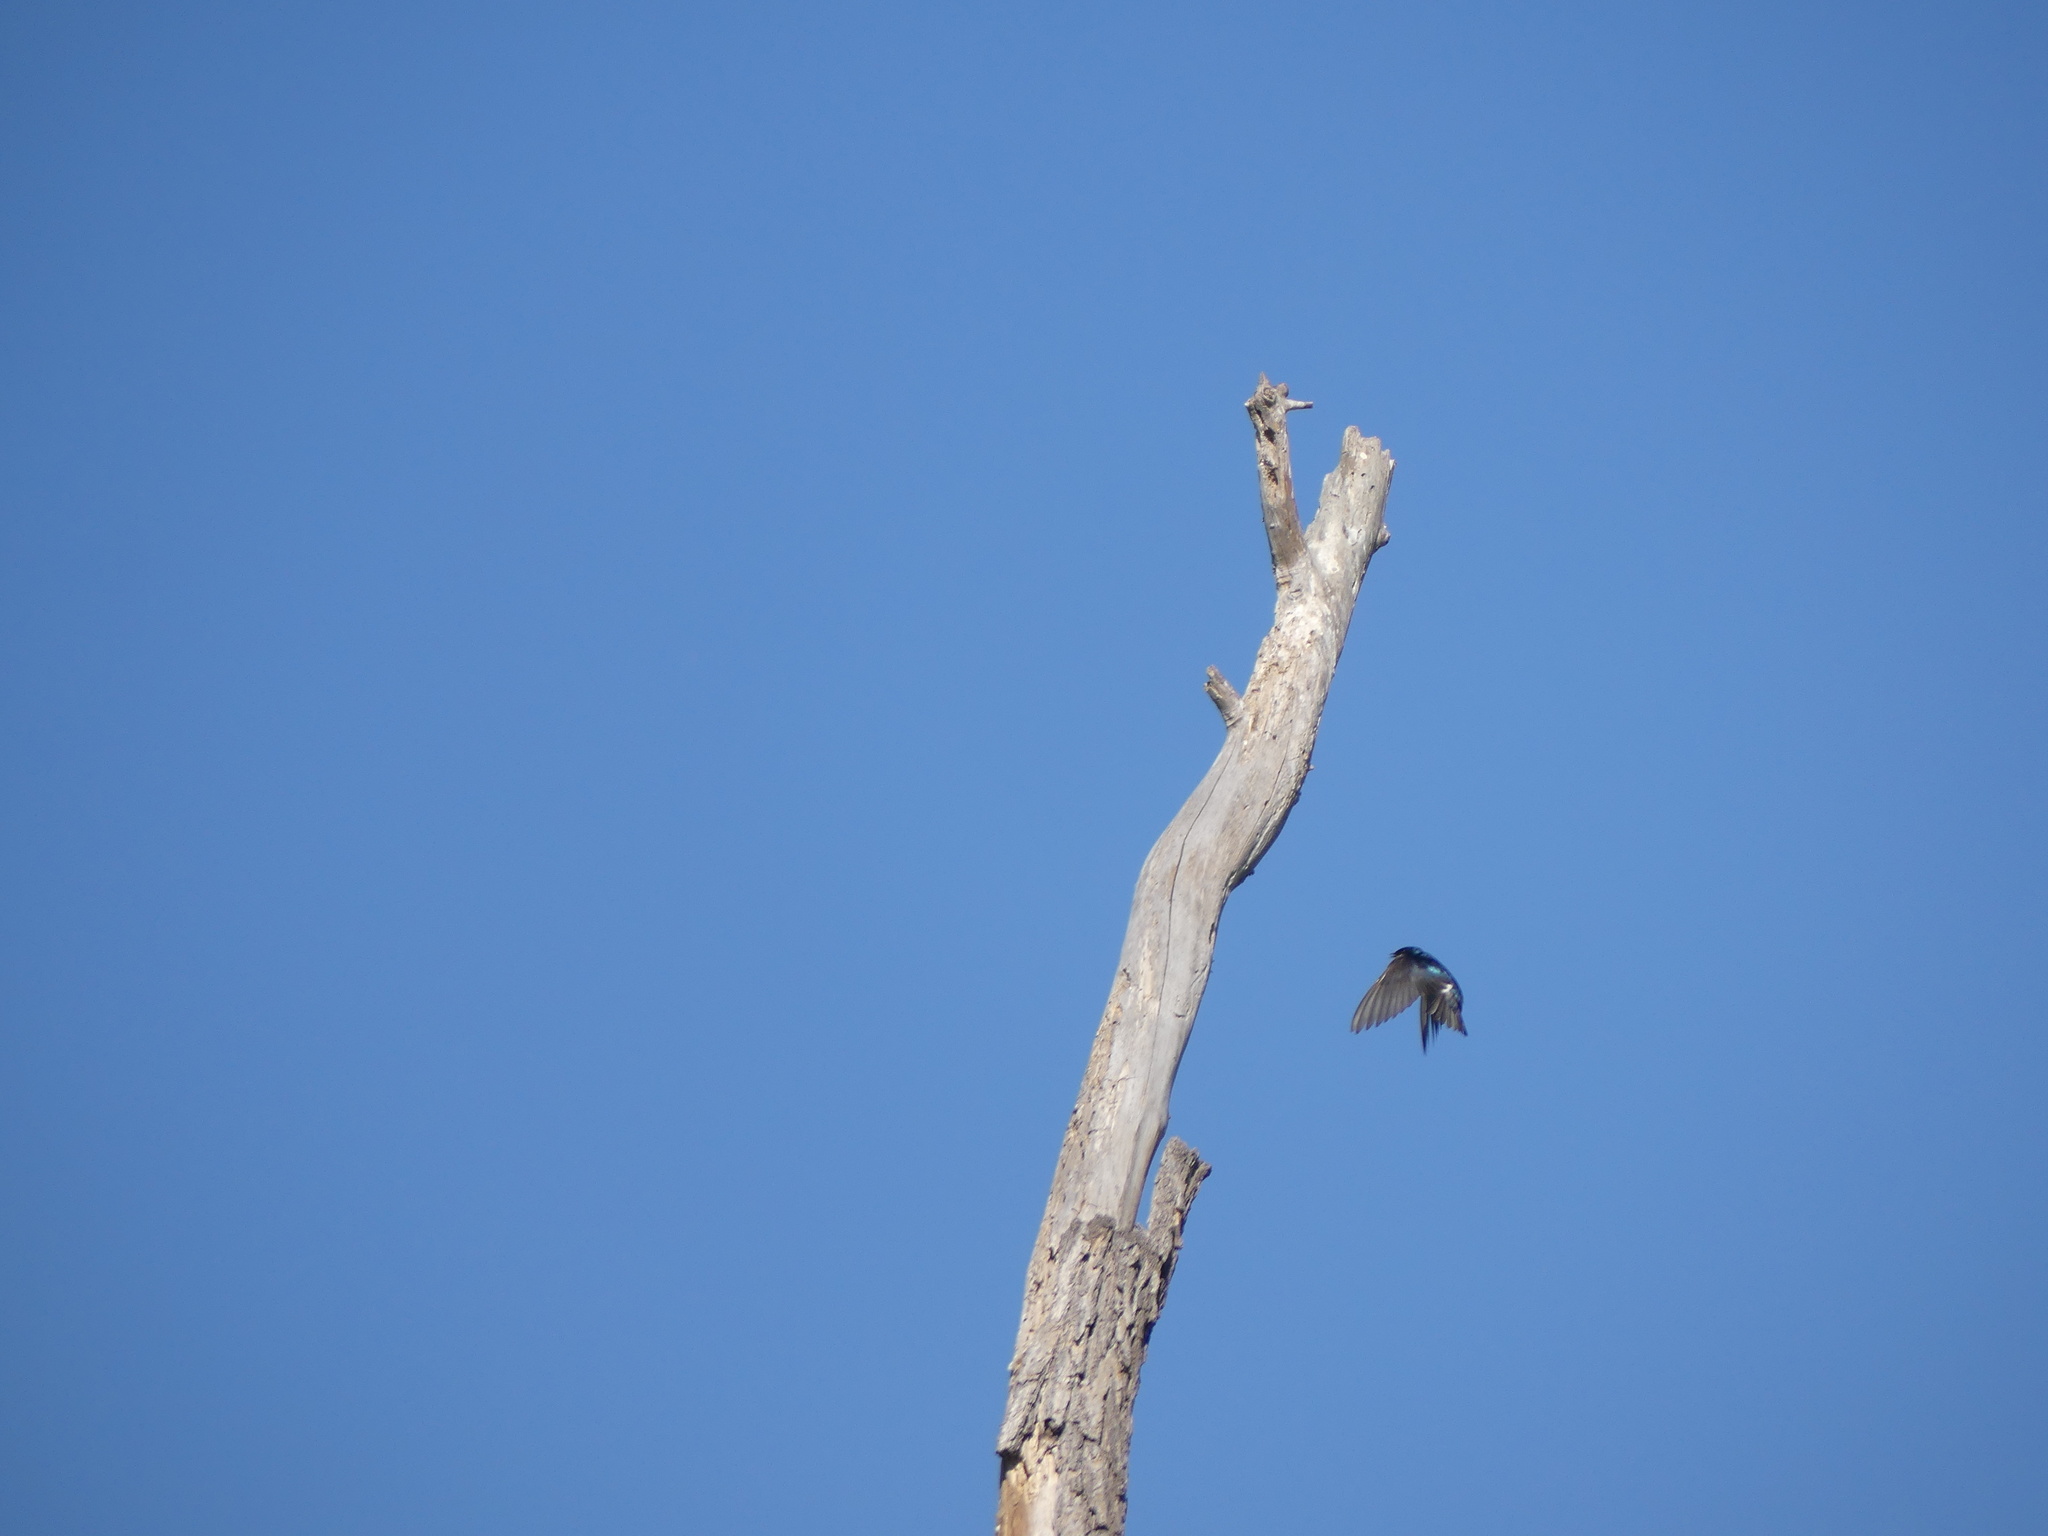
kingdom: Animalia
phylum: Chordata
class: Aves
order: Passeriformes
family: Hirundinidae
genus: Tachycineta
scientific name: Tachycineta bicolor
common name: Tree swallow
